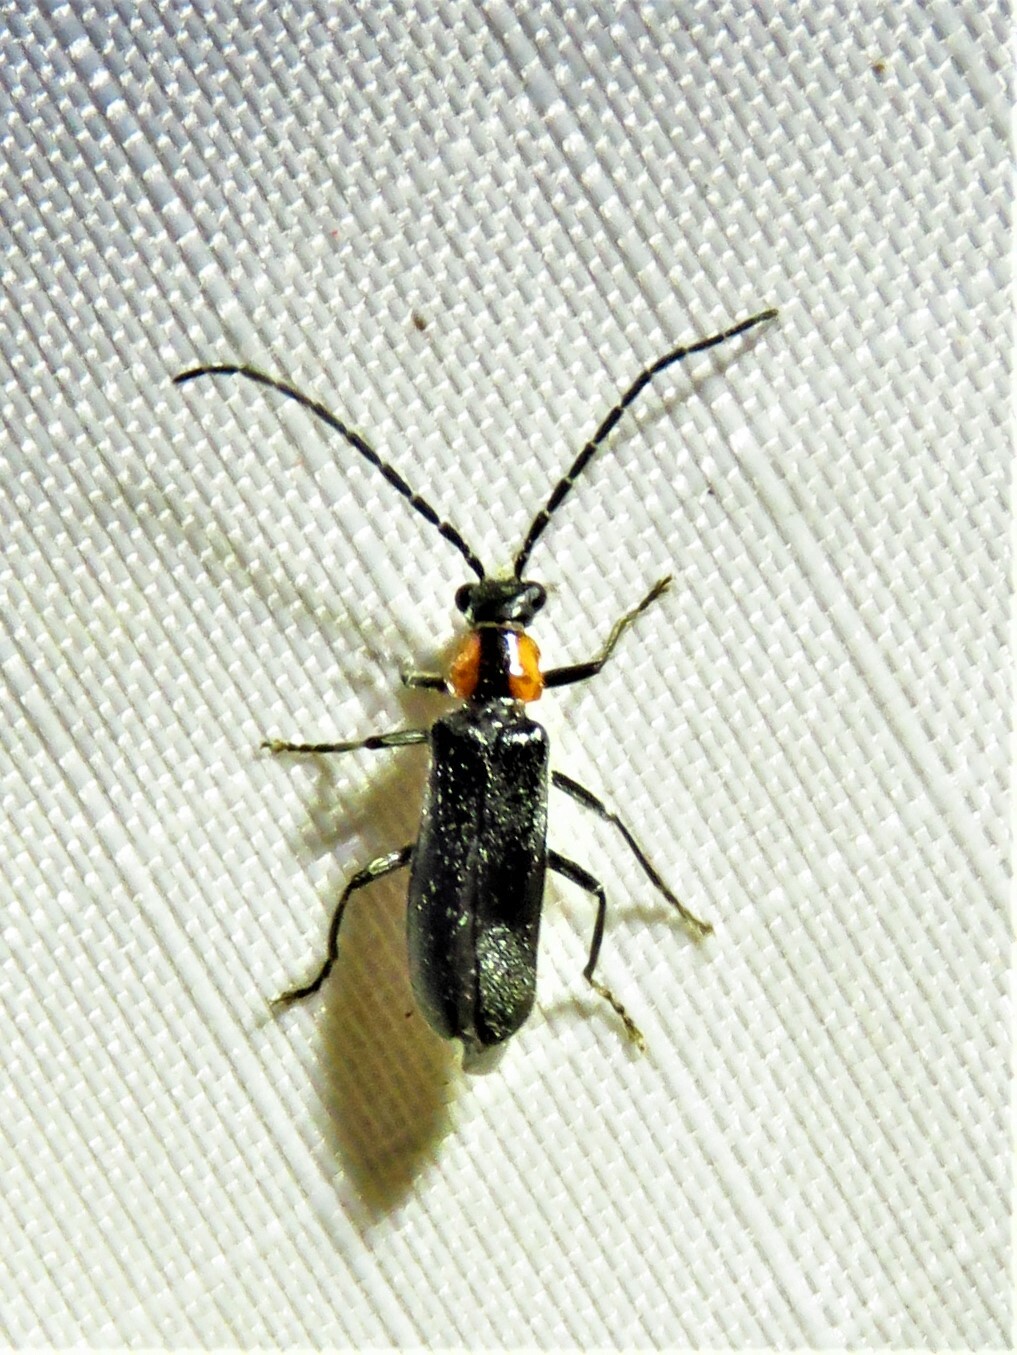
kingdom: Animalia
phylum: Arthropoda
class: Insecta
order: Coleoptera
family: Cantharidae
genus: Rhagonycha
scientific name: Rhagonycha lineola
